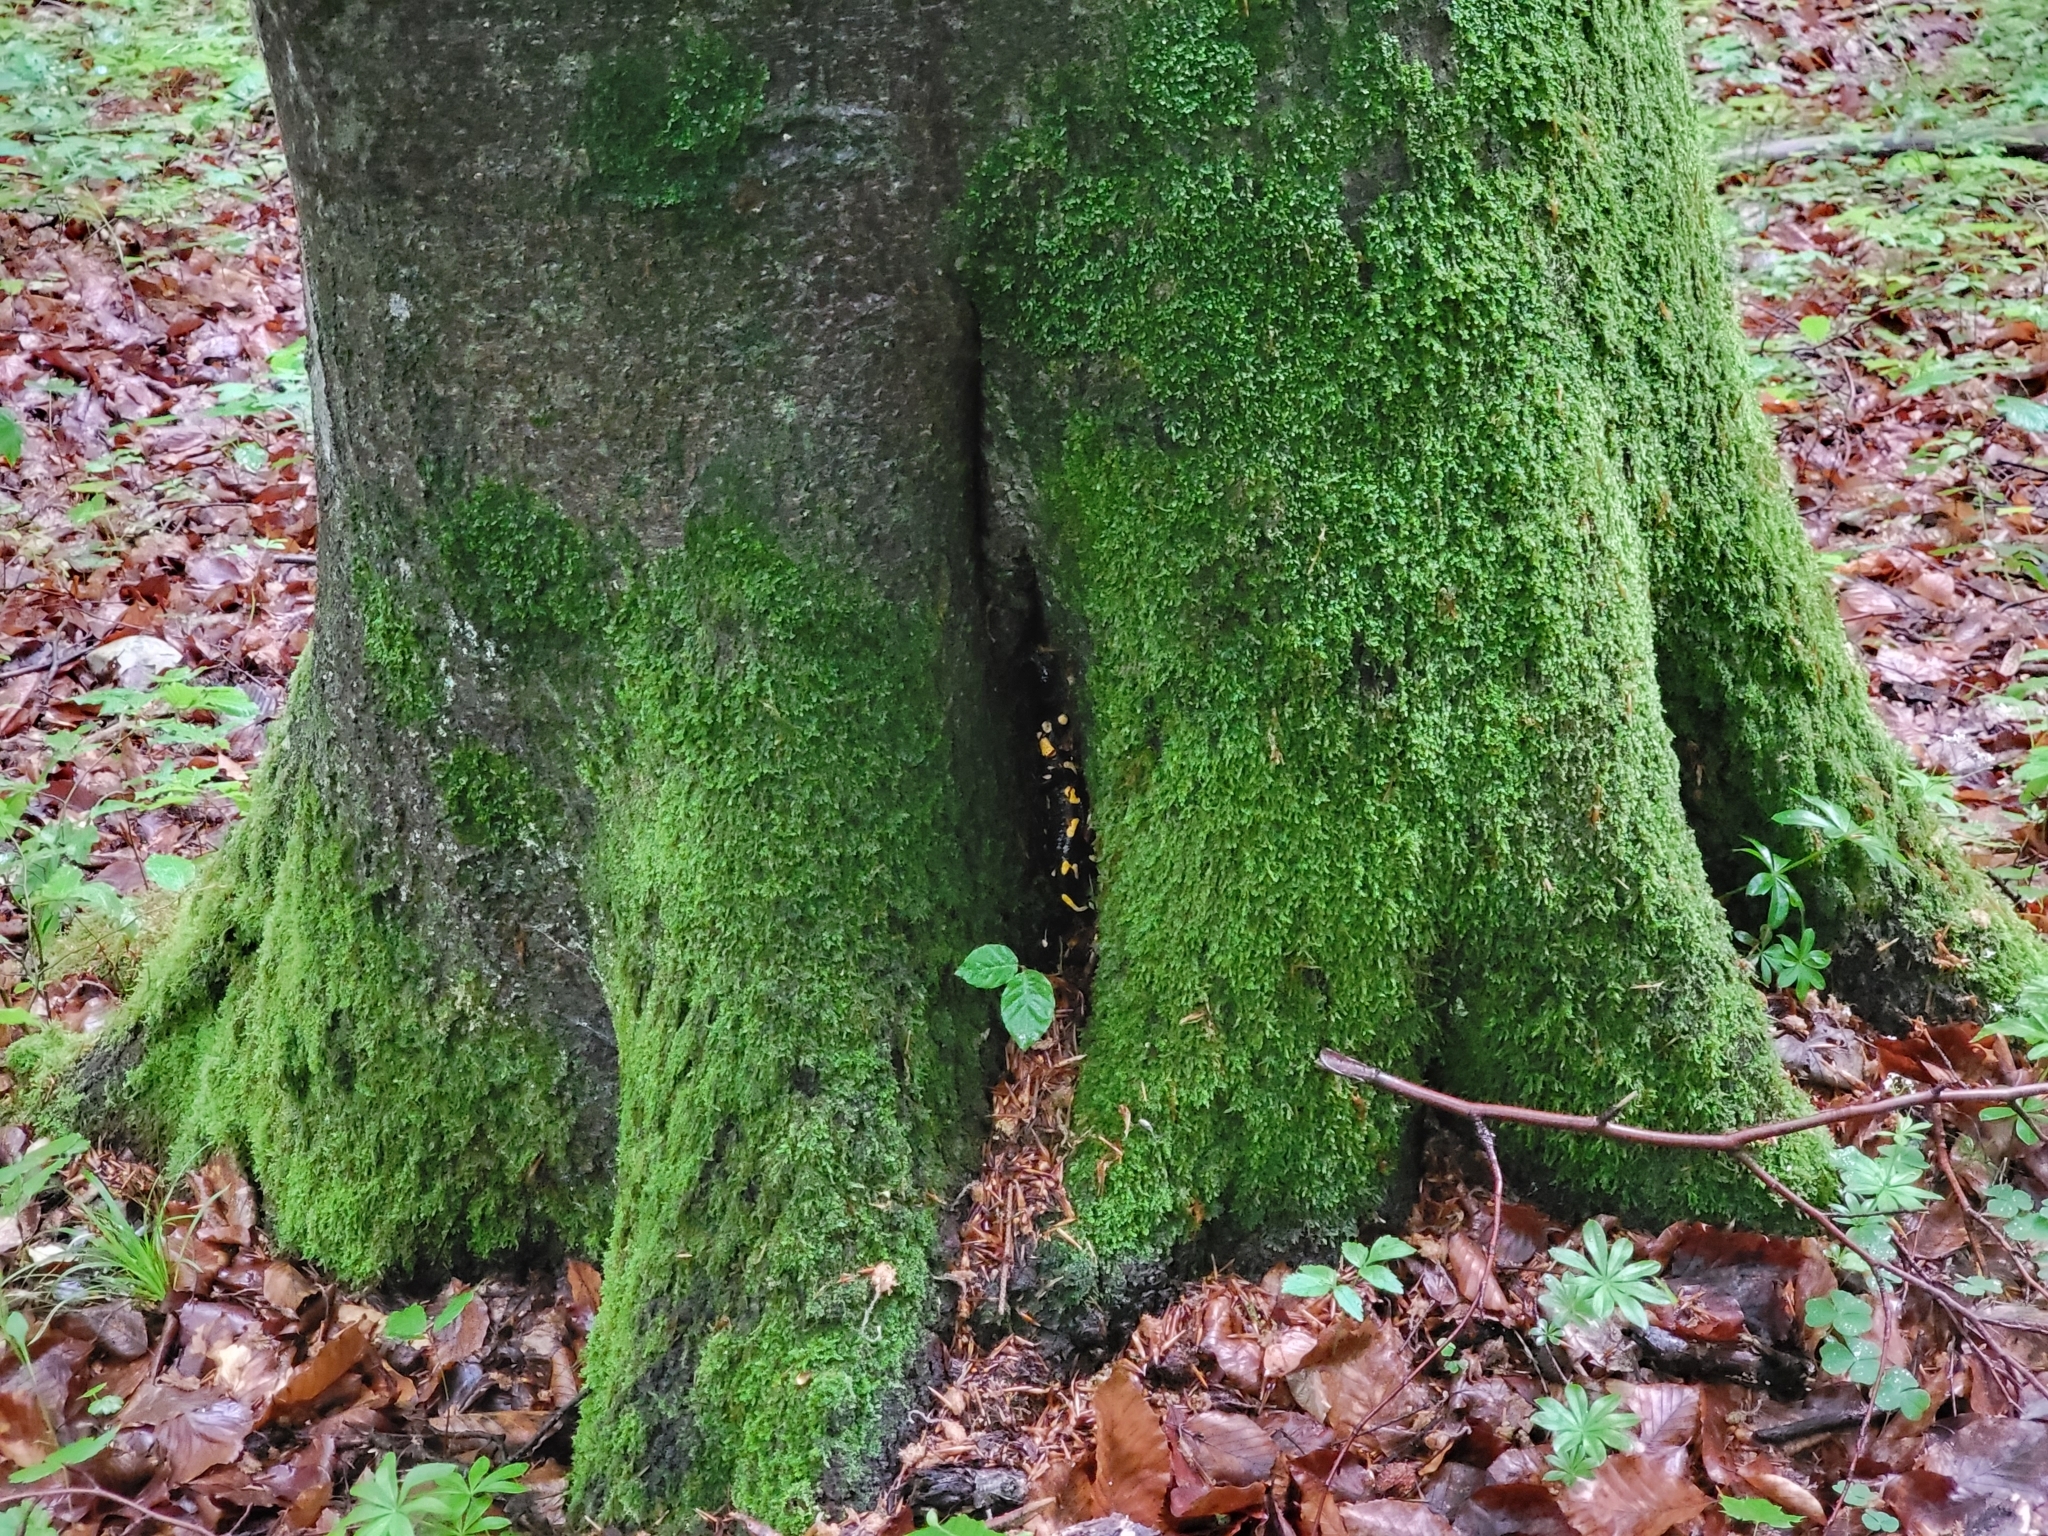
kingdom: Animalia
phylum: Chordata
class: Amphibia
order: Caudata
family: Salamandridae
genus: Salamandra
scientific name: Salamandra salamandra
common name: Fire salamander
